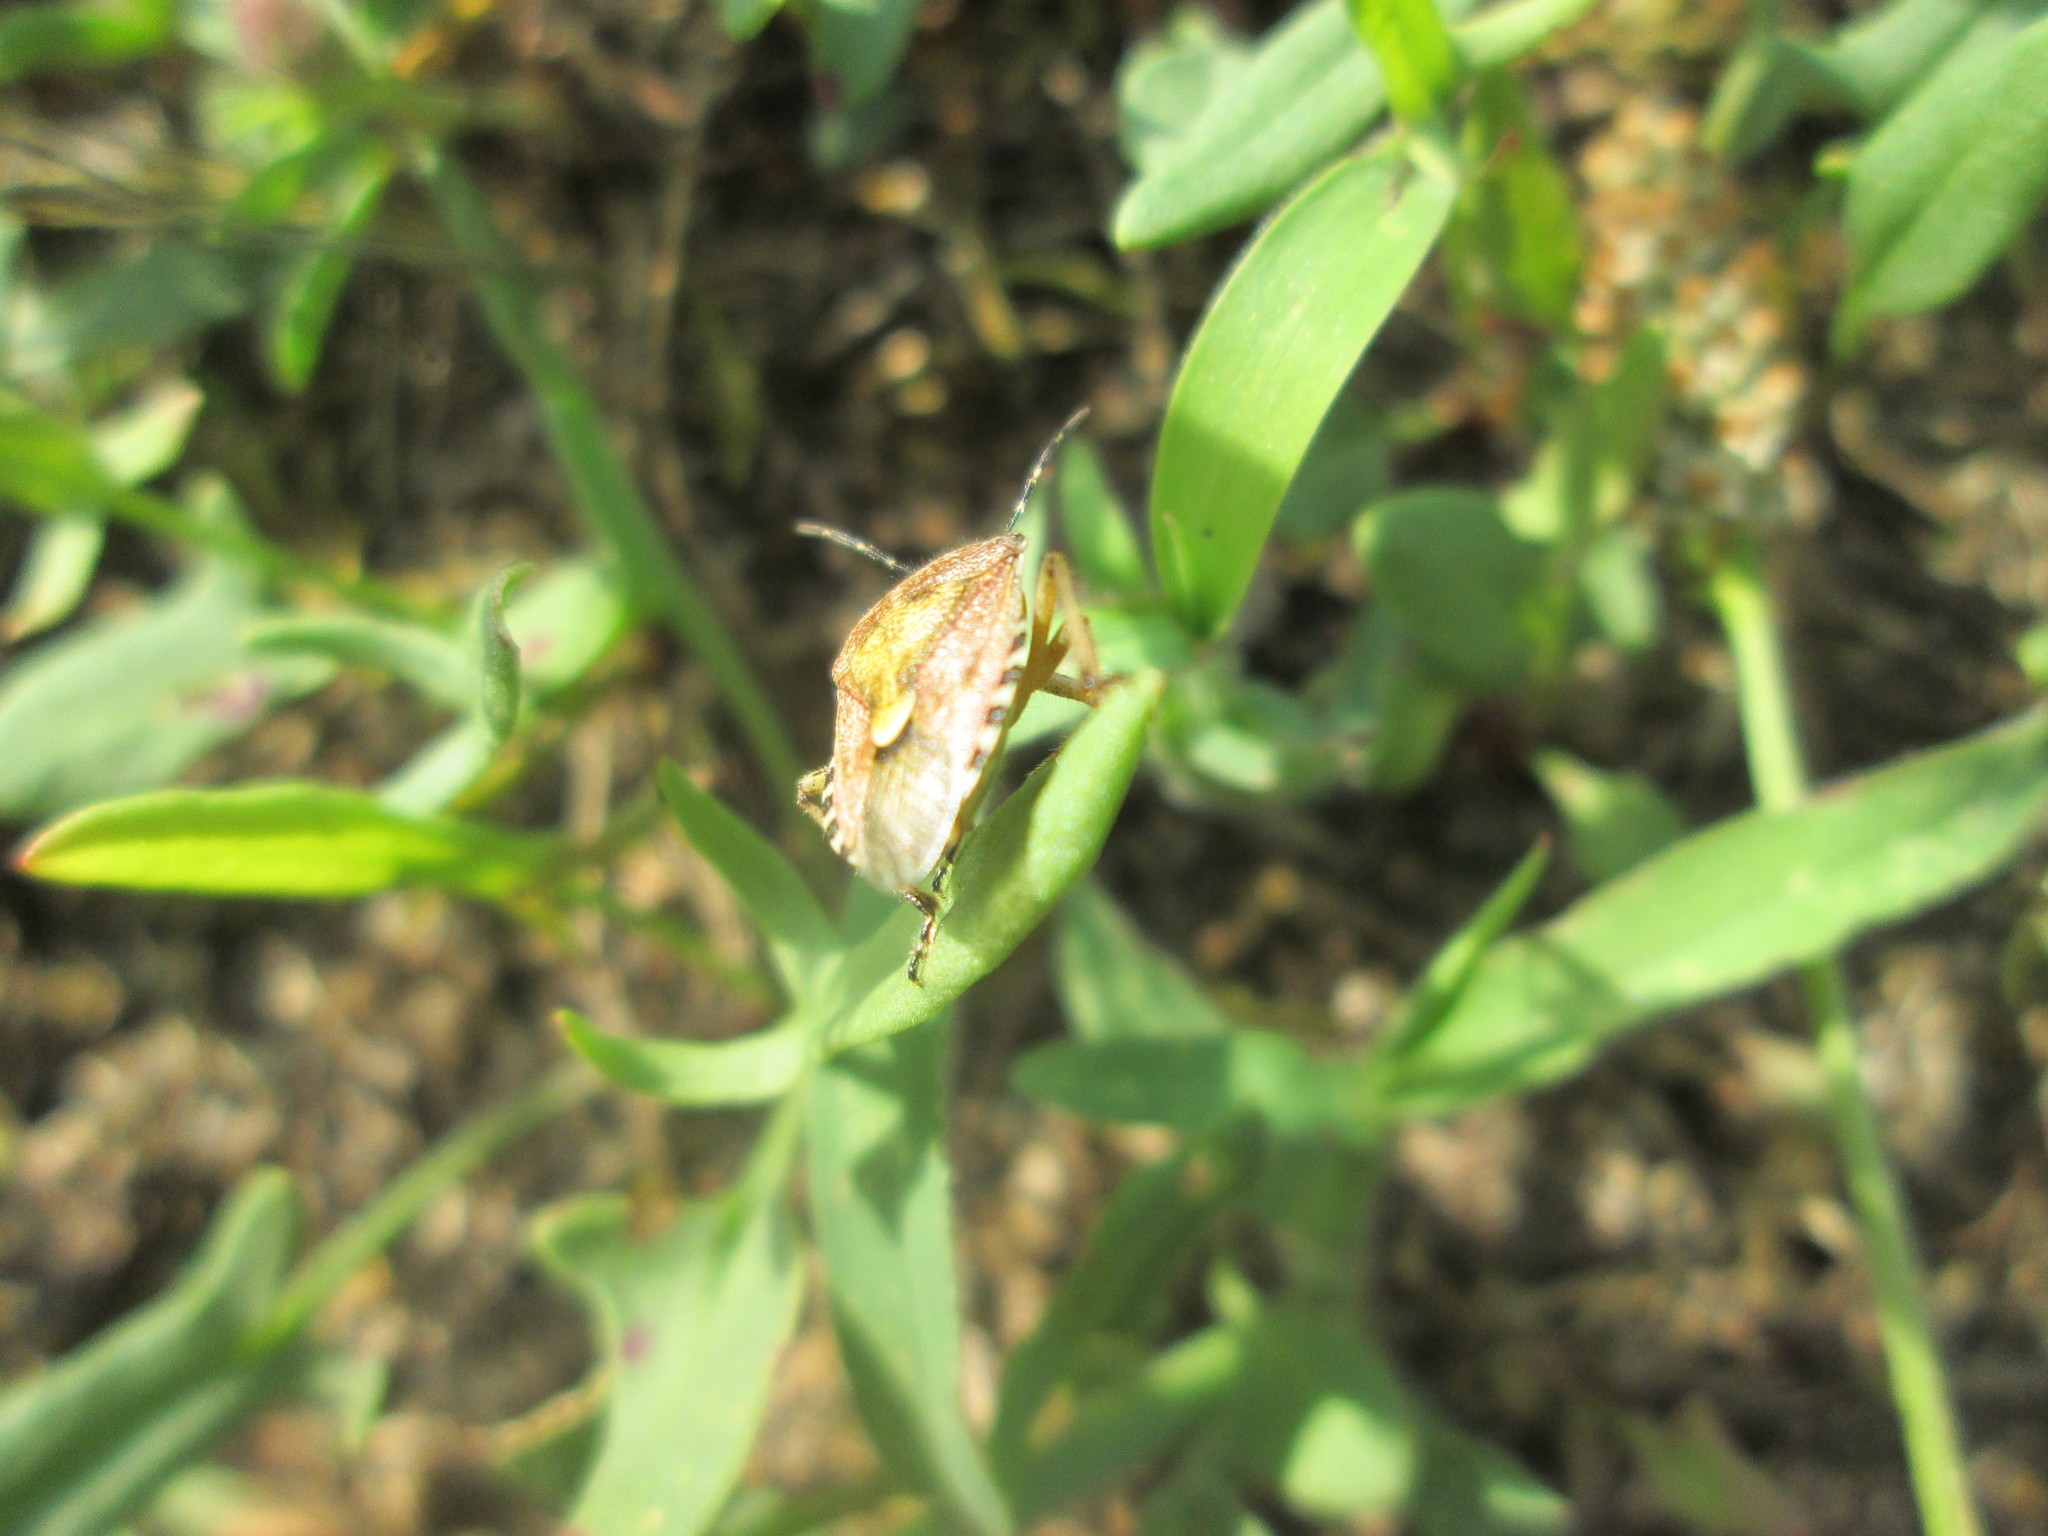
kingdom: Animalia
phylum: Arthropoda
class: Insecta
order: Hemiptera
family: Pentatomidae
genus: Dolycoris
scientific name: Dolycoris baccarum
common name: Sloe bug
